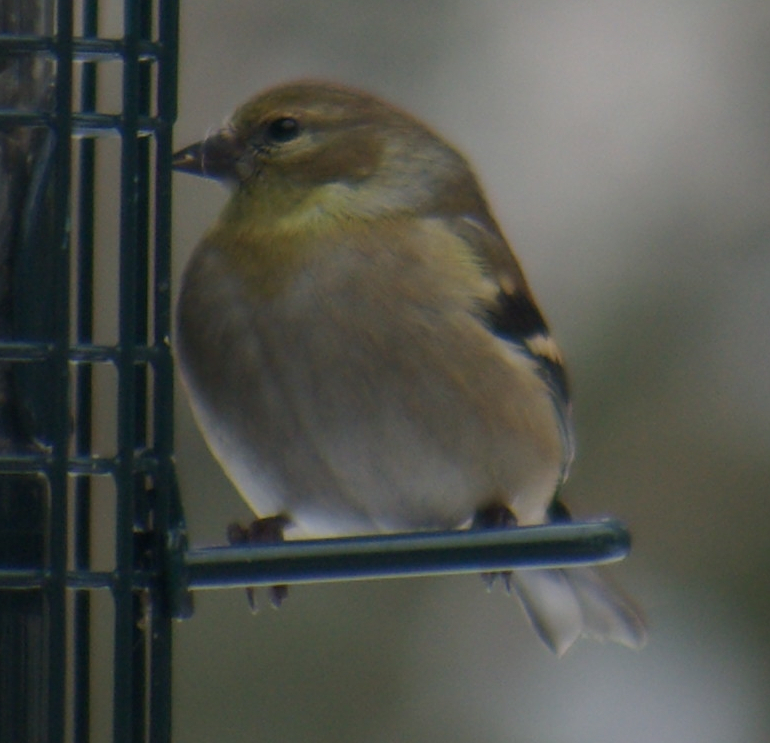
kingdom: Animalia
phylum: Chordata
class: Aves
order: Passeriformes
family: Fringillidae
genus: Spinus
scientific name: Spinus tristis
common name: American goldfinch
